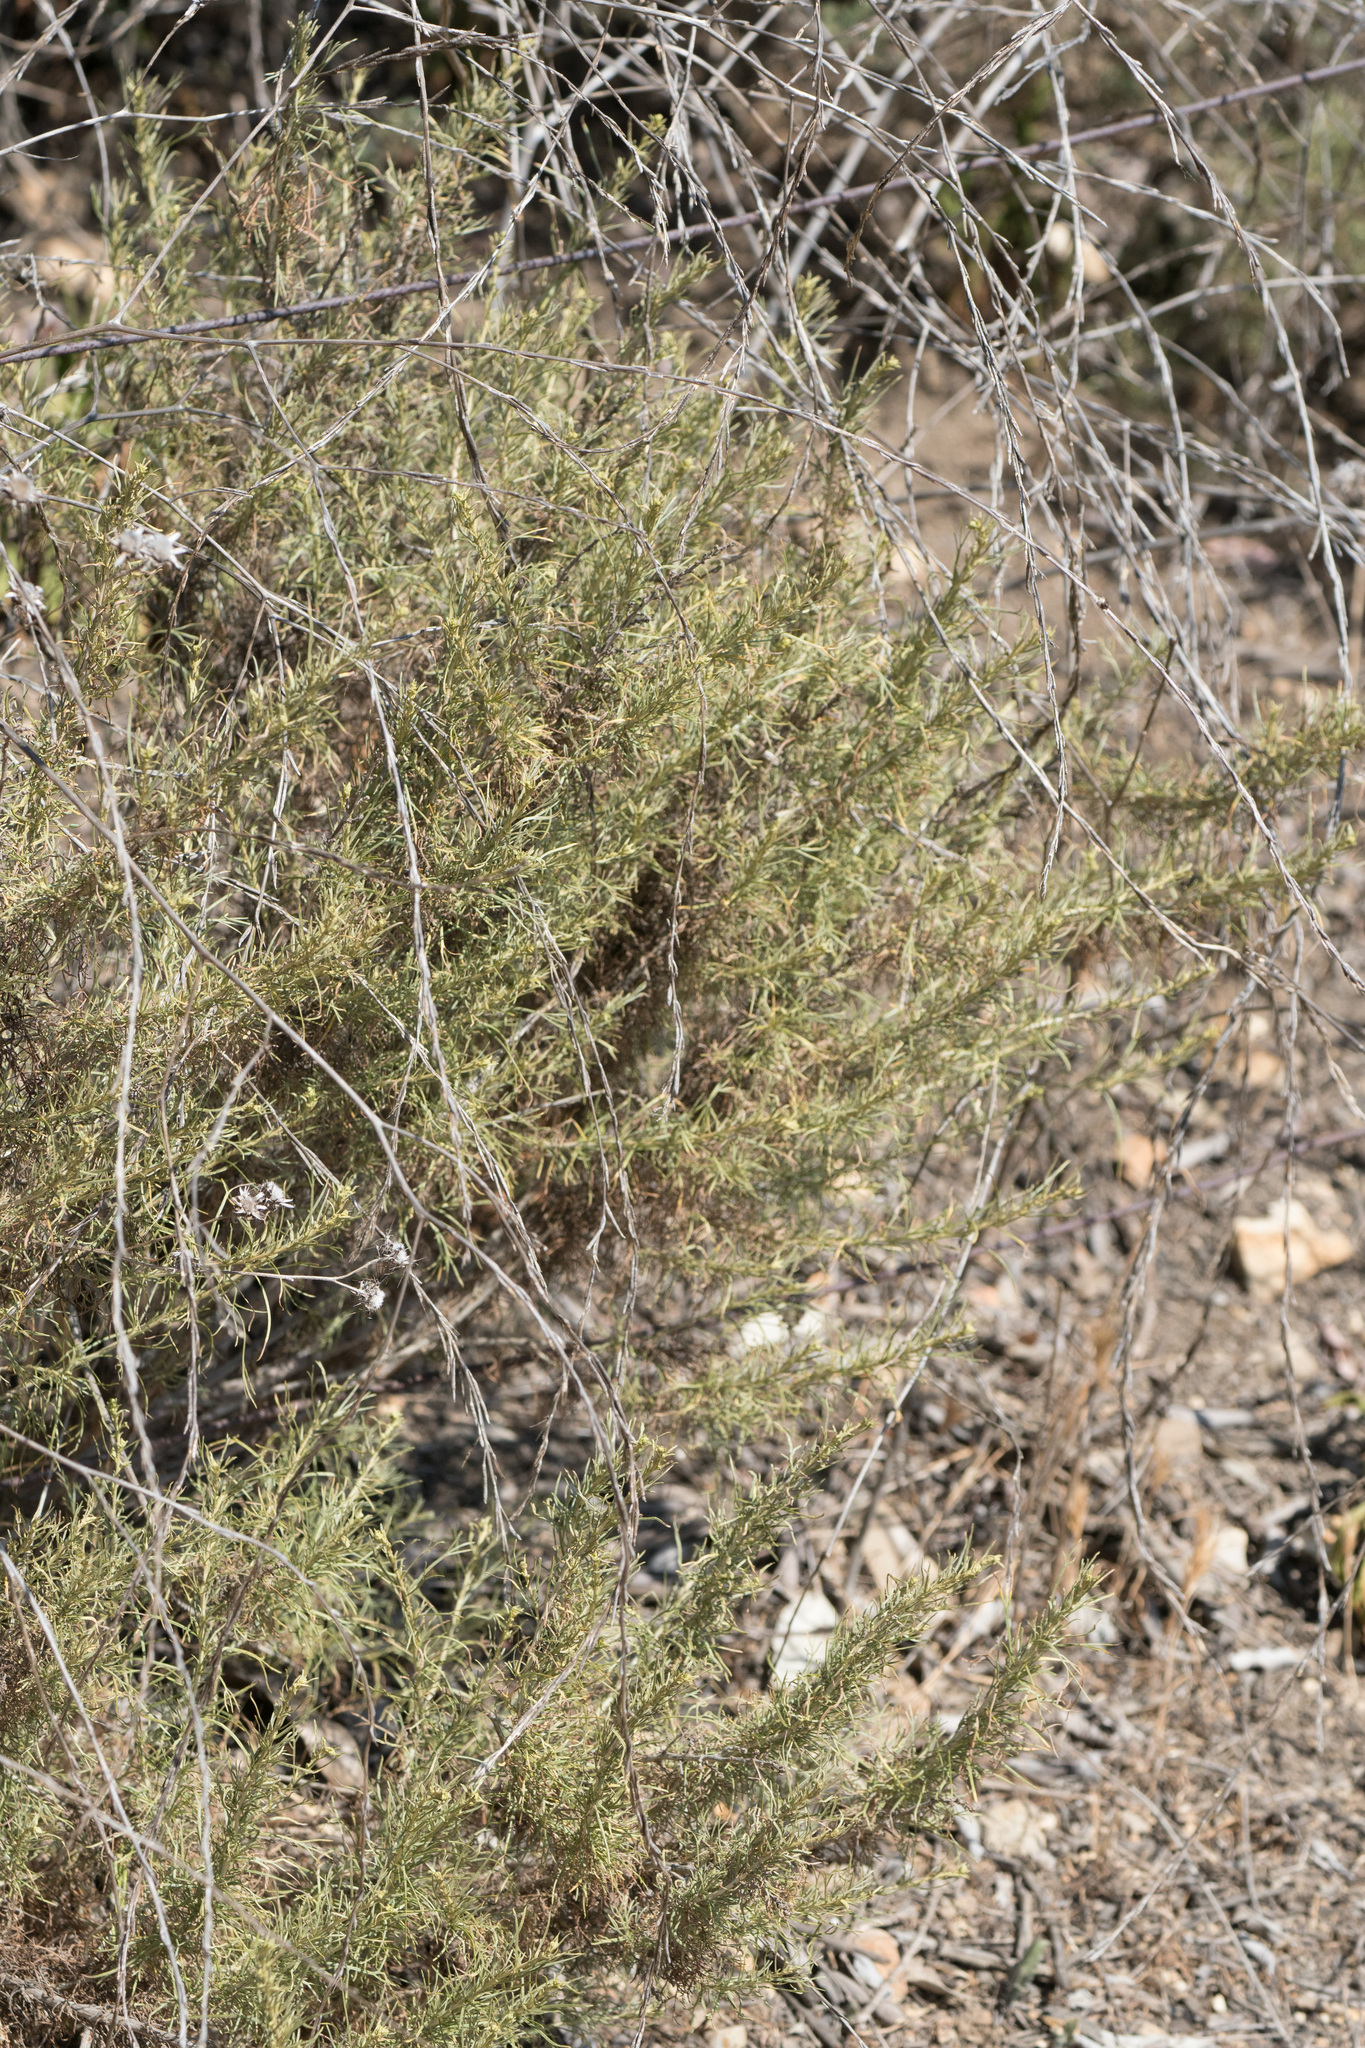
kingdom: Plantae
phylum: Tracheophyta
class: Magnoliopsida
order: Asterales
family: Asteraceae
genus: Artemisia
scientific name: Artemisia californica
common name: California sagebrush
